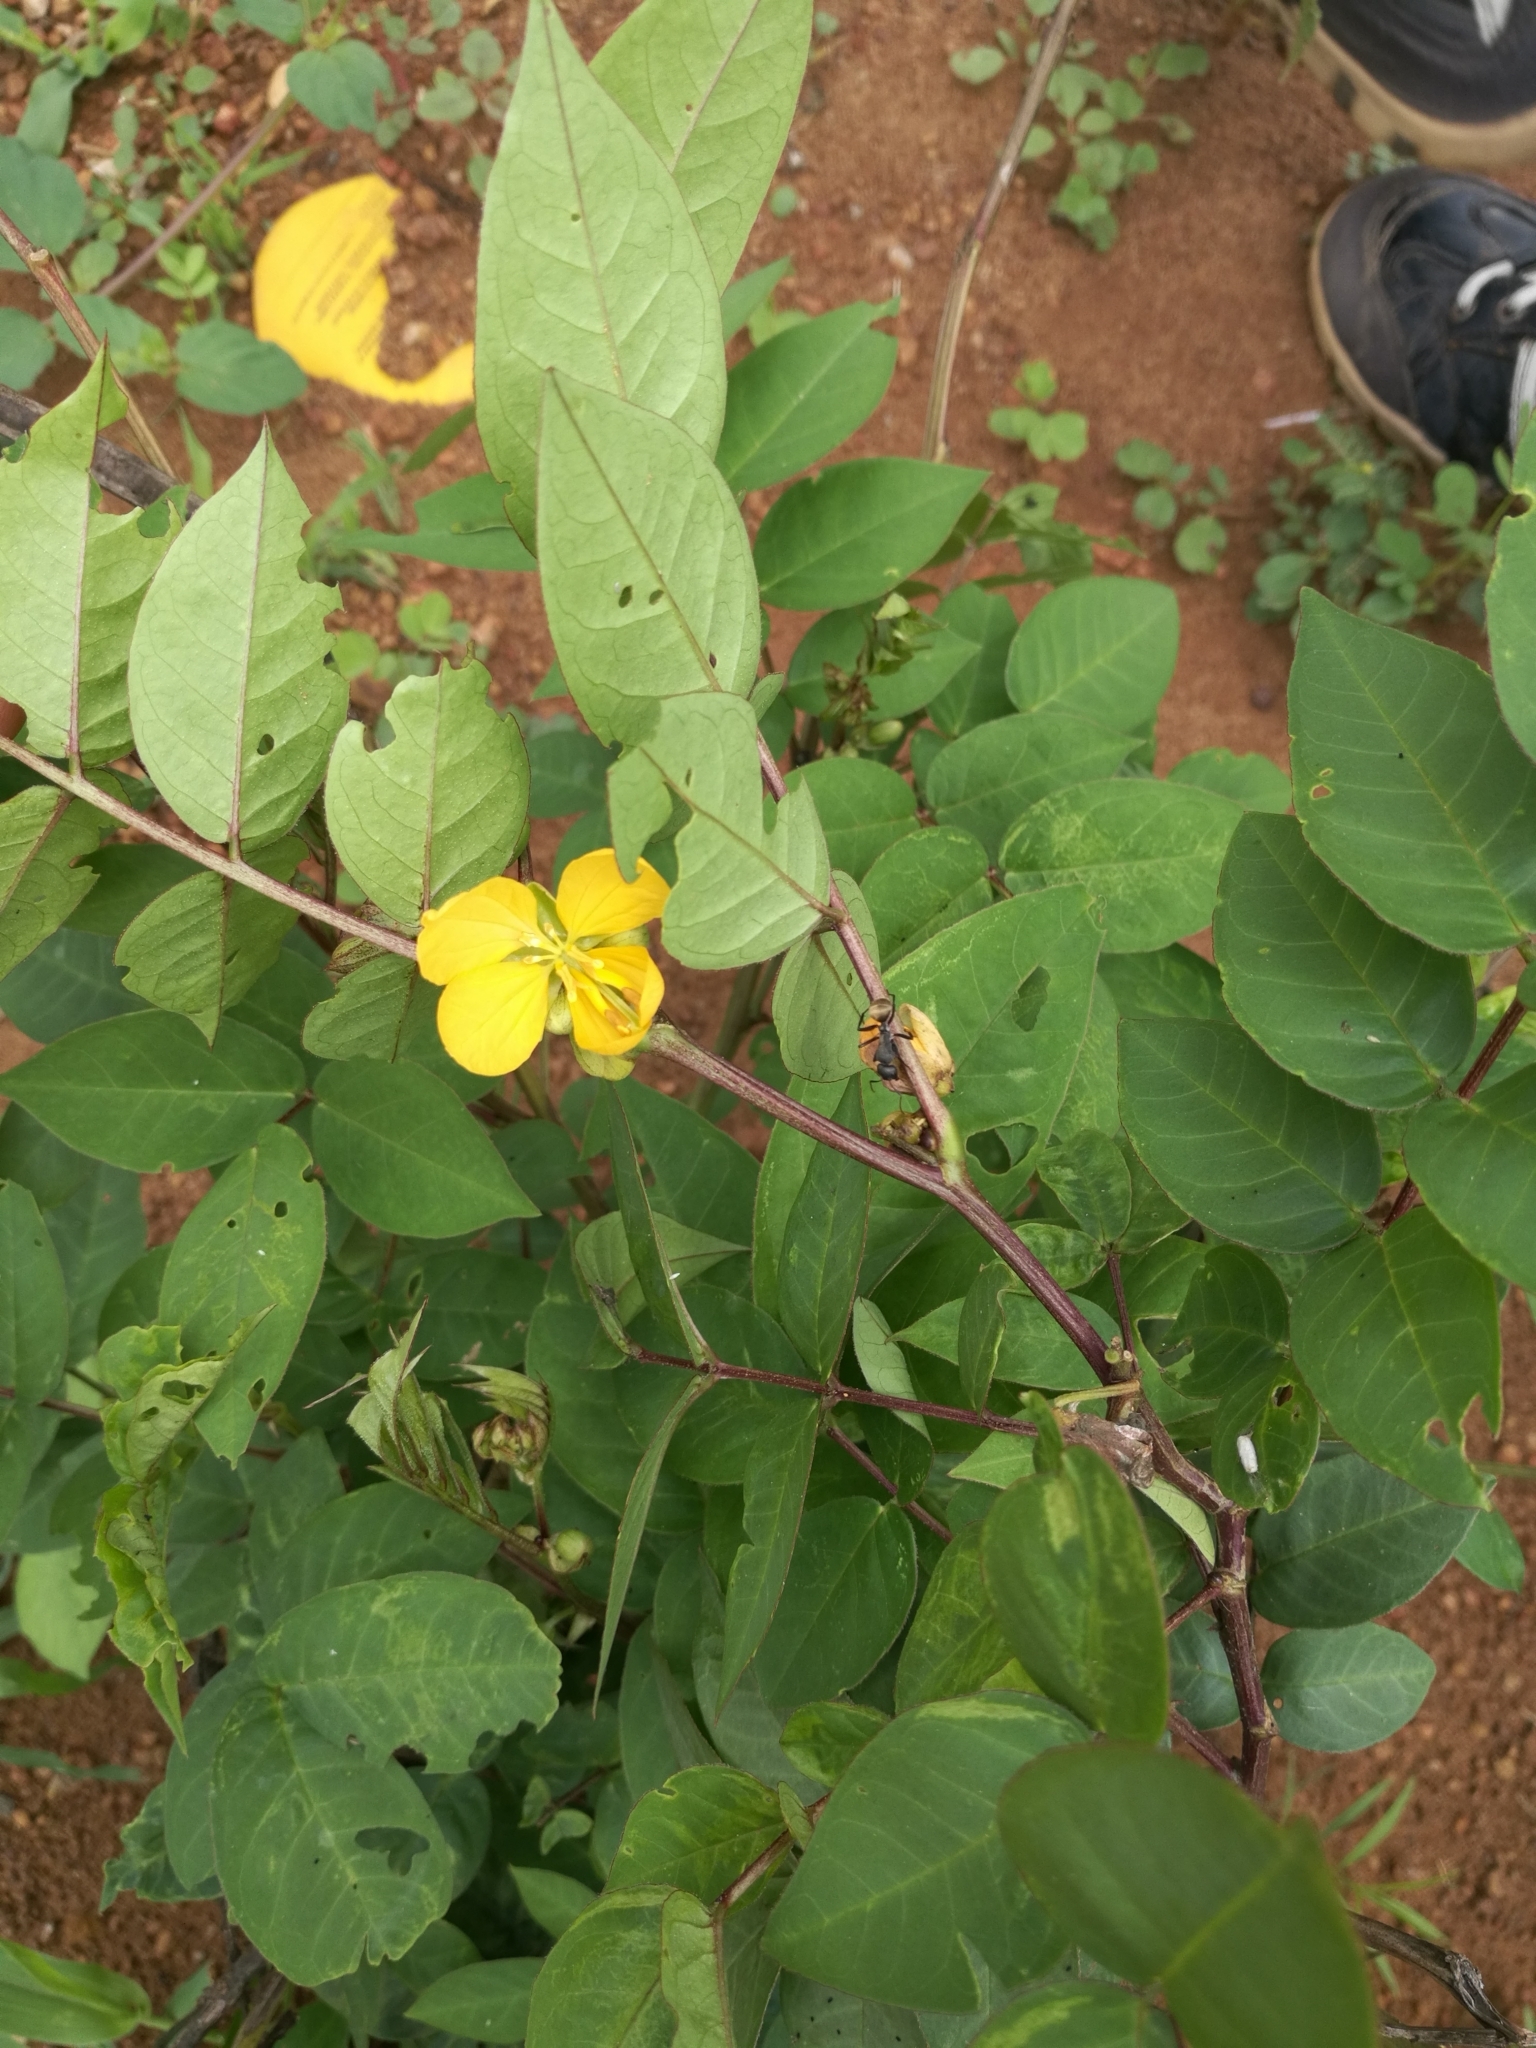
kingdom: Plantae
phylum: Tracheophyta
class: Magnoliopsida
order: Fabales
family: Fabaceae
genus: Senna
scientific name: Senna occidentalis
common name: Septicweed
